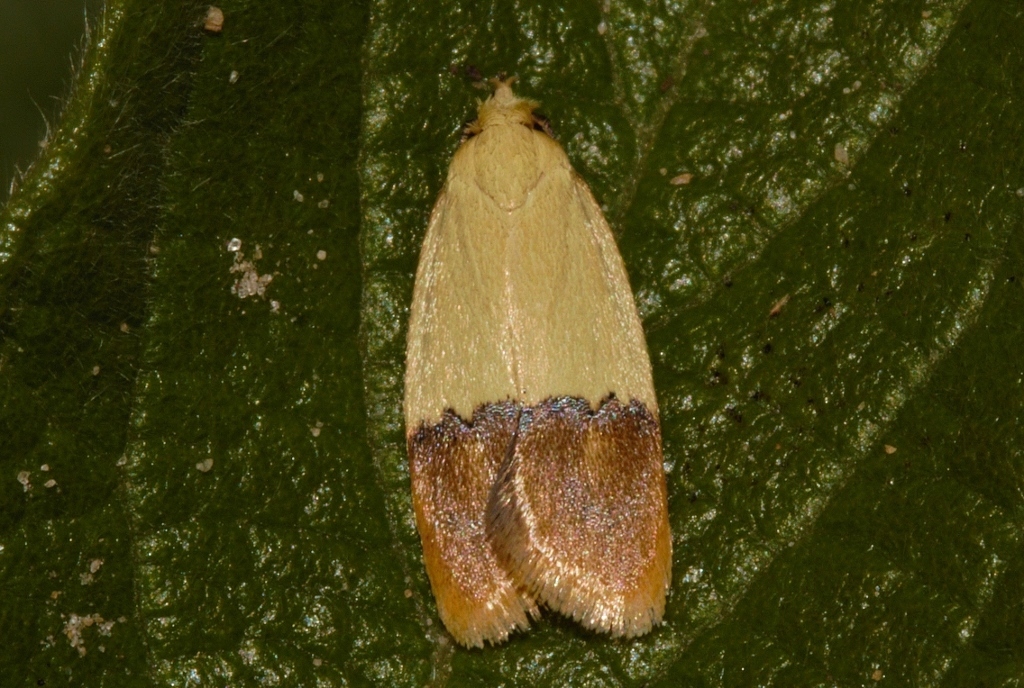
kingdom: Animalia
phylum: Arthropoda
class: Insecta
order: Lepidoptera
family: Peleopodidae
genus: Odites
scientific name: Odites natalensis
